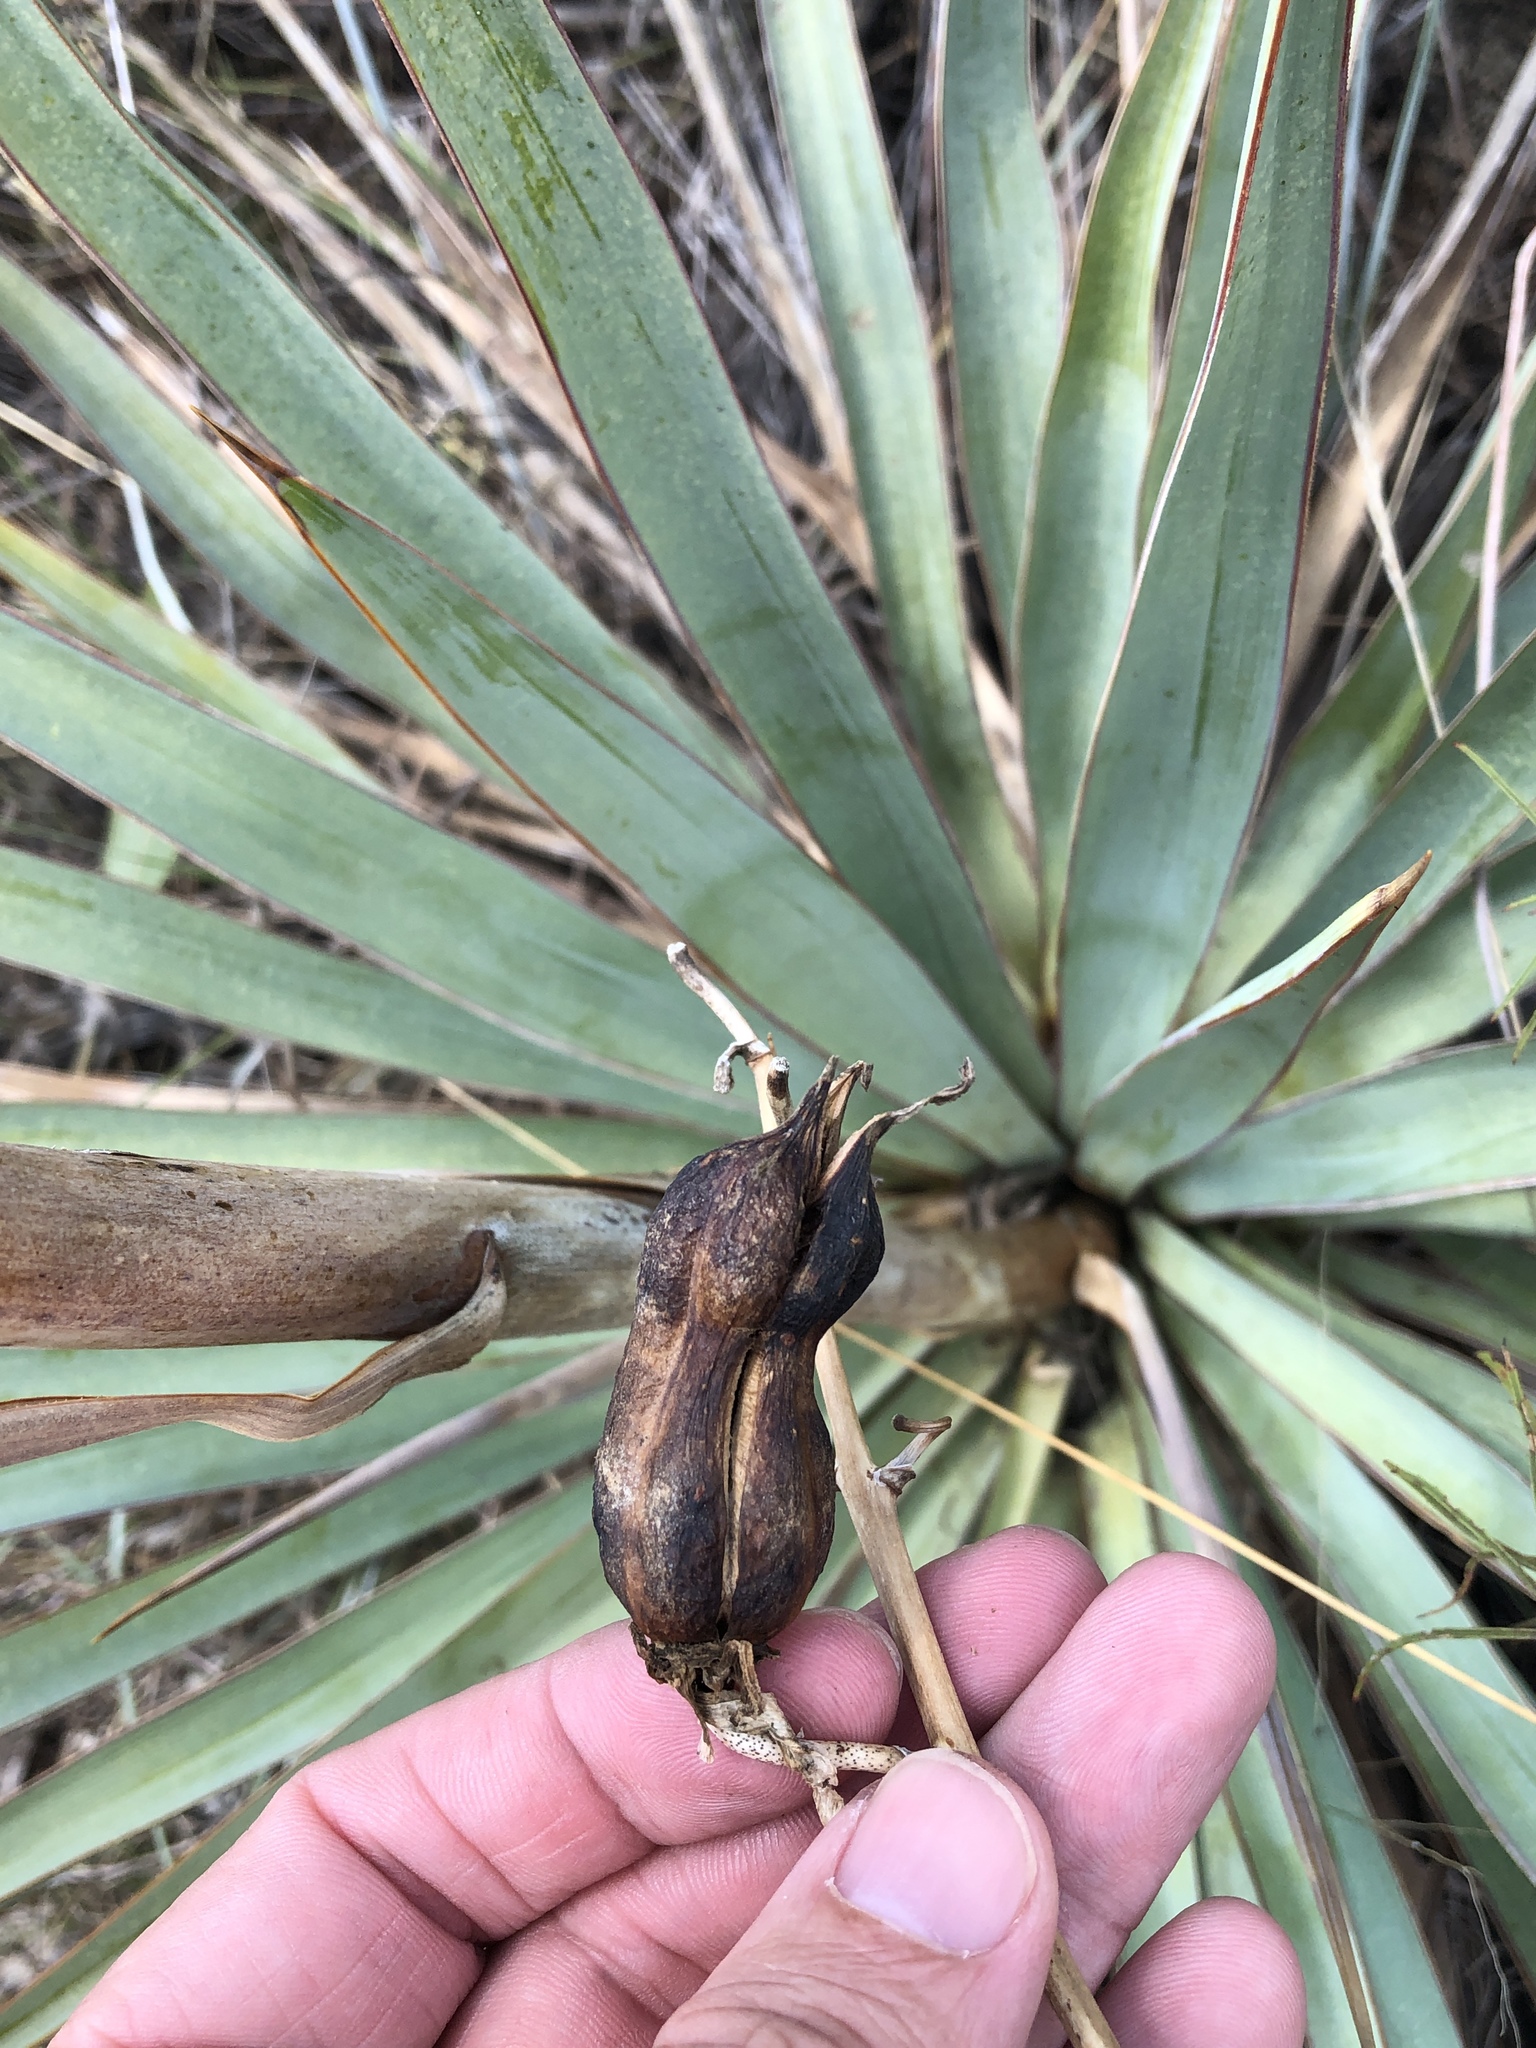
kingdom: Plantae
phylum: Tracheophyta
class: Liliopsida
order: Asparagales
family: Asparagaceae
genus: Yucca
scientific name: Yucca pallida
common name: Pale leaf yucca
